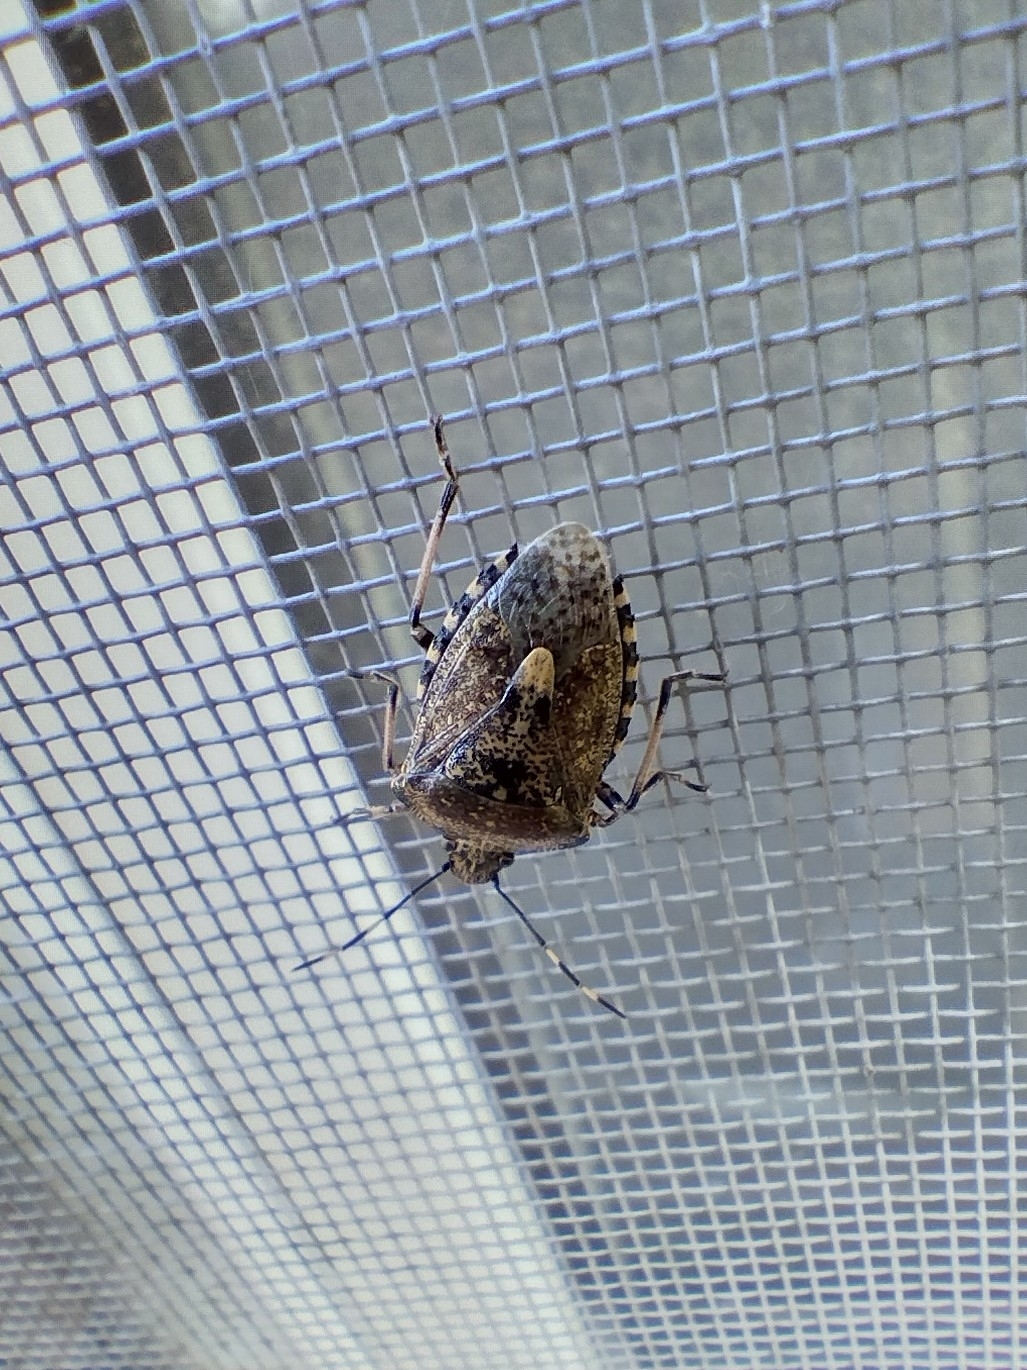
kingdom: Animalia
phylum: Arthropoda
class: Insecta
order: Hemiptera
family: Pentatomidae
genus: Rhaphigaster
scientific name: Rhaphigaster nebulosa
